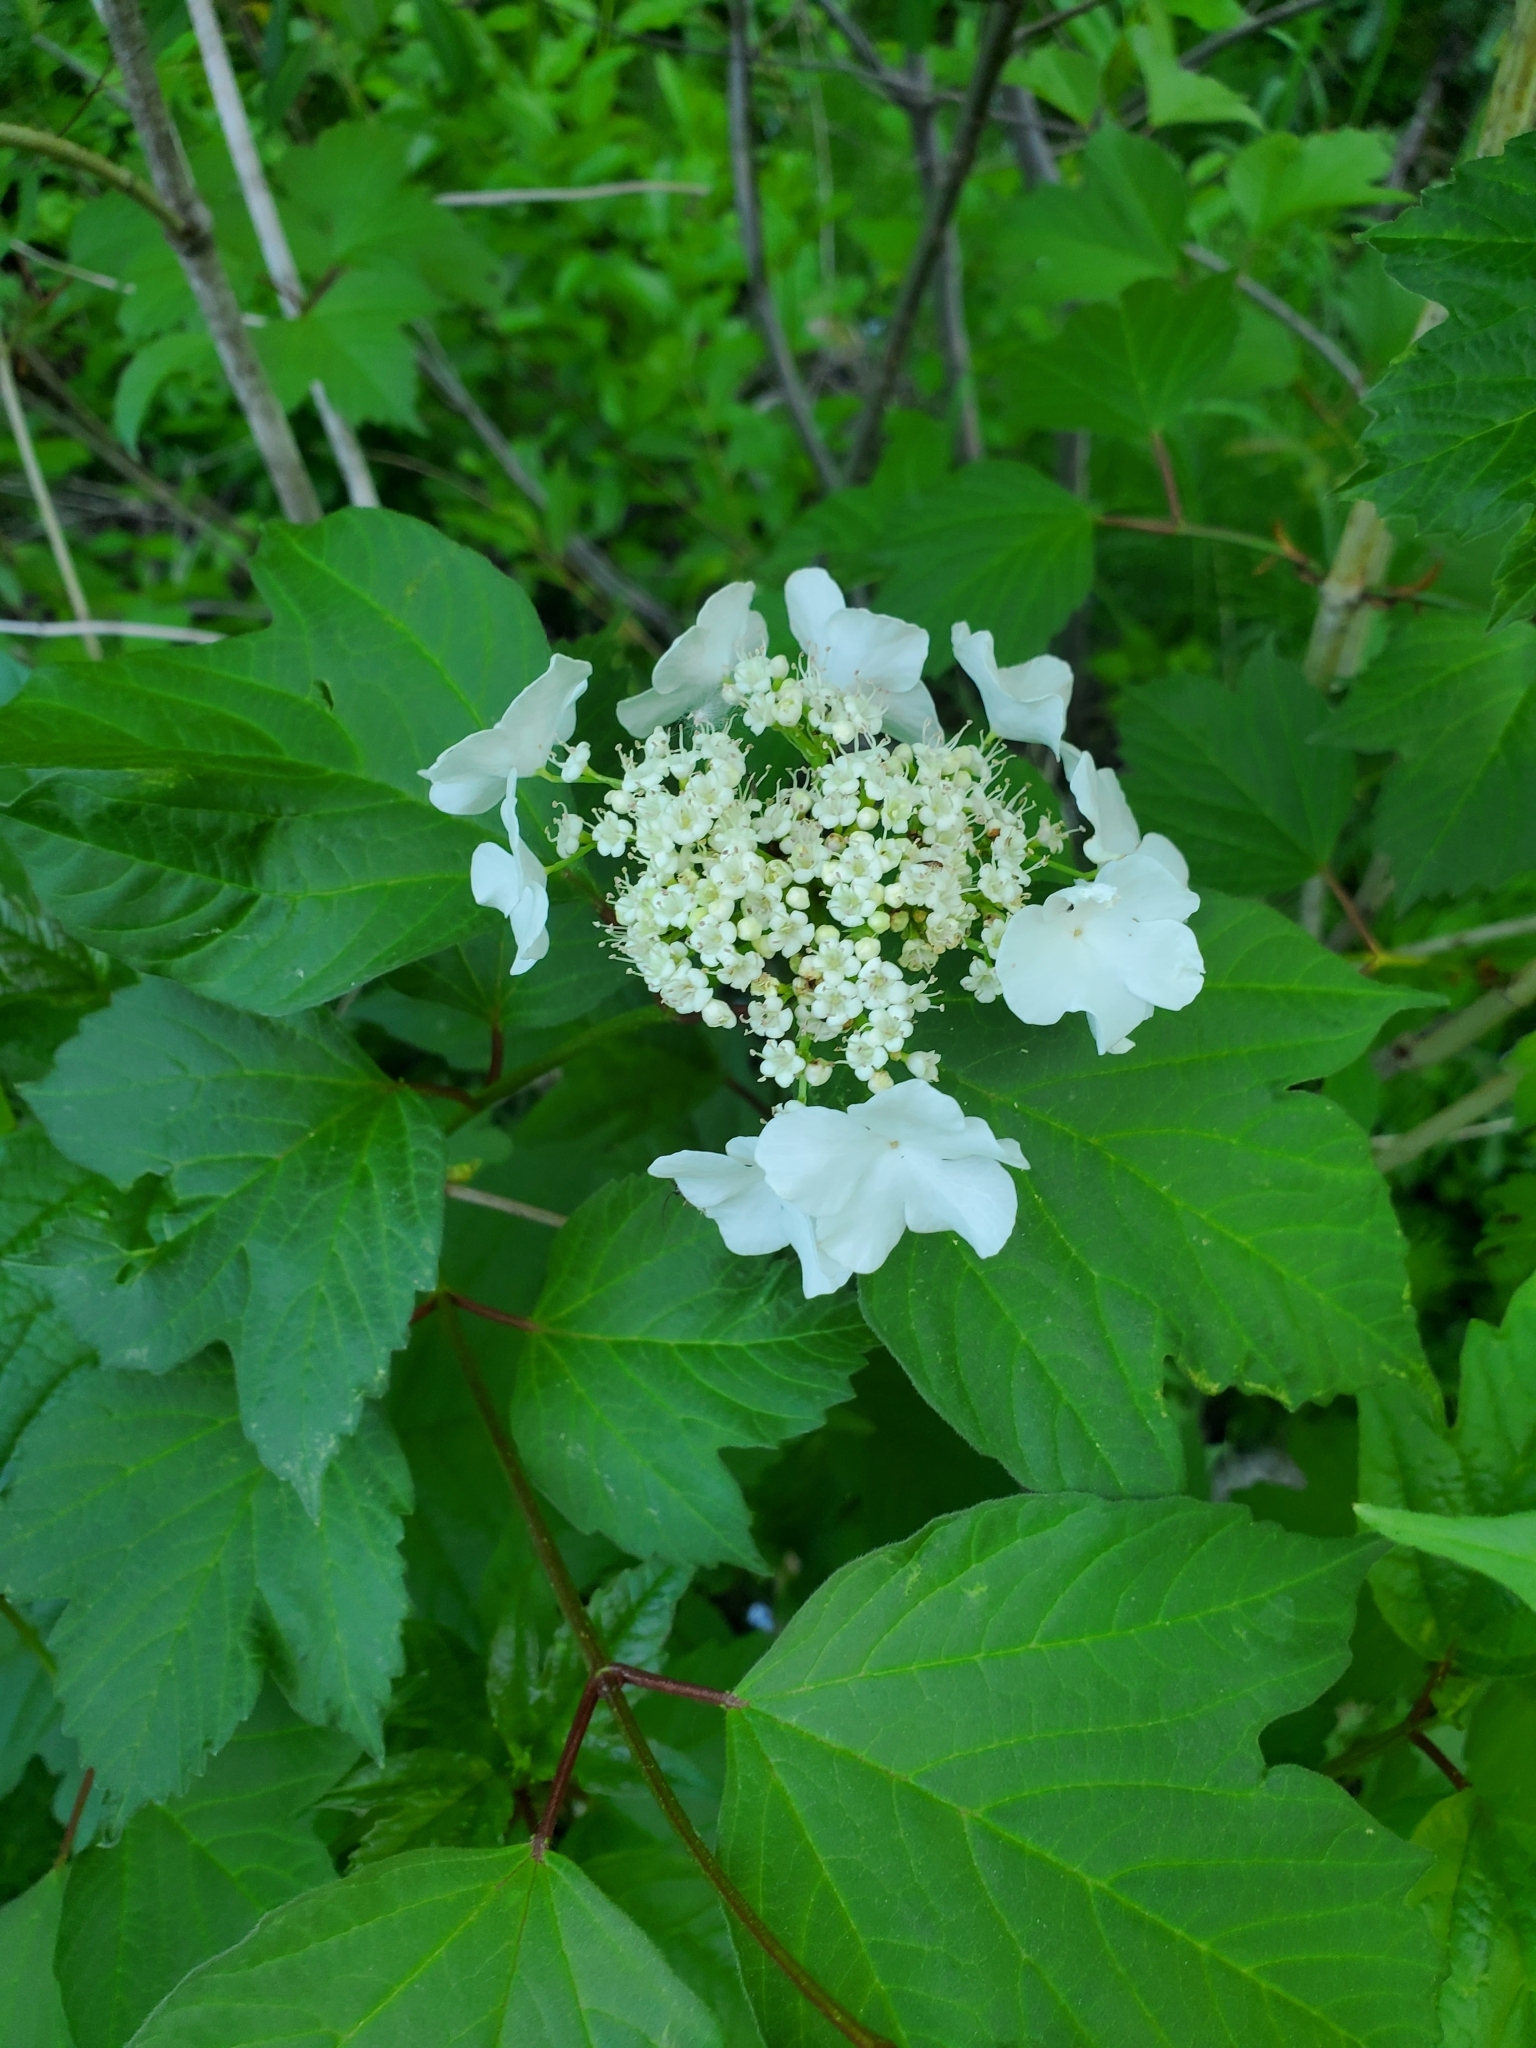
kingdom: Plantae
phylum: Tracheophyta
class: Magnoliopsida
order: Dipsacales
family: Viburnaceae
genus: Viburnum
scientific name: Viburnum opulus
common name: Guelder-rose
